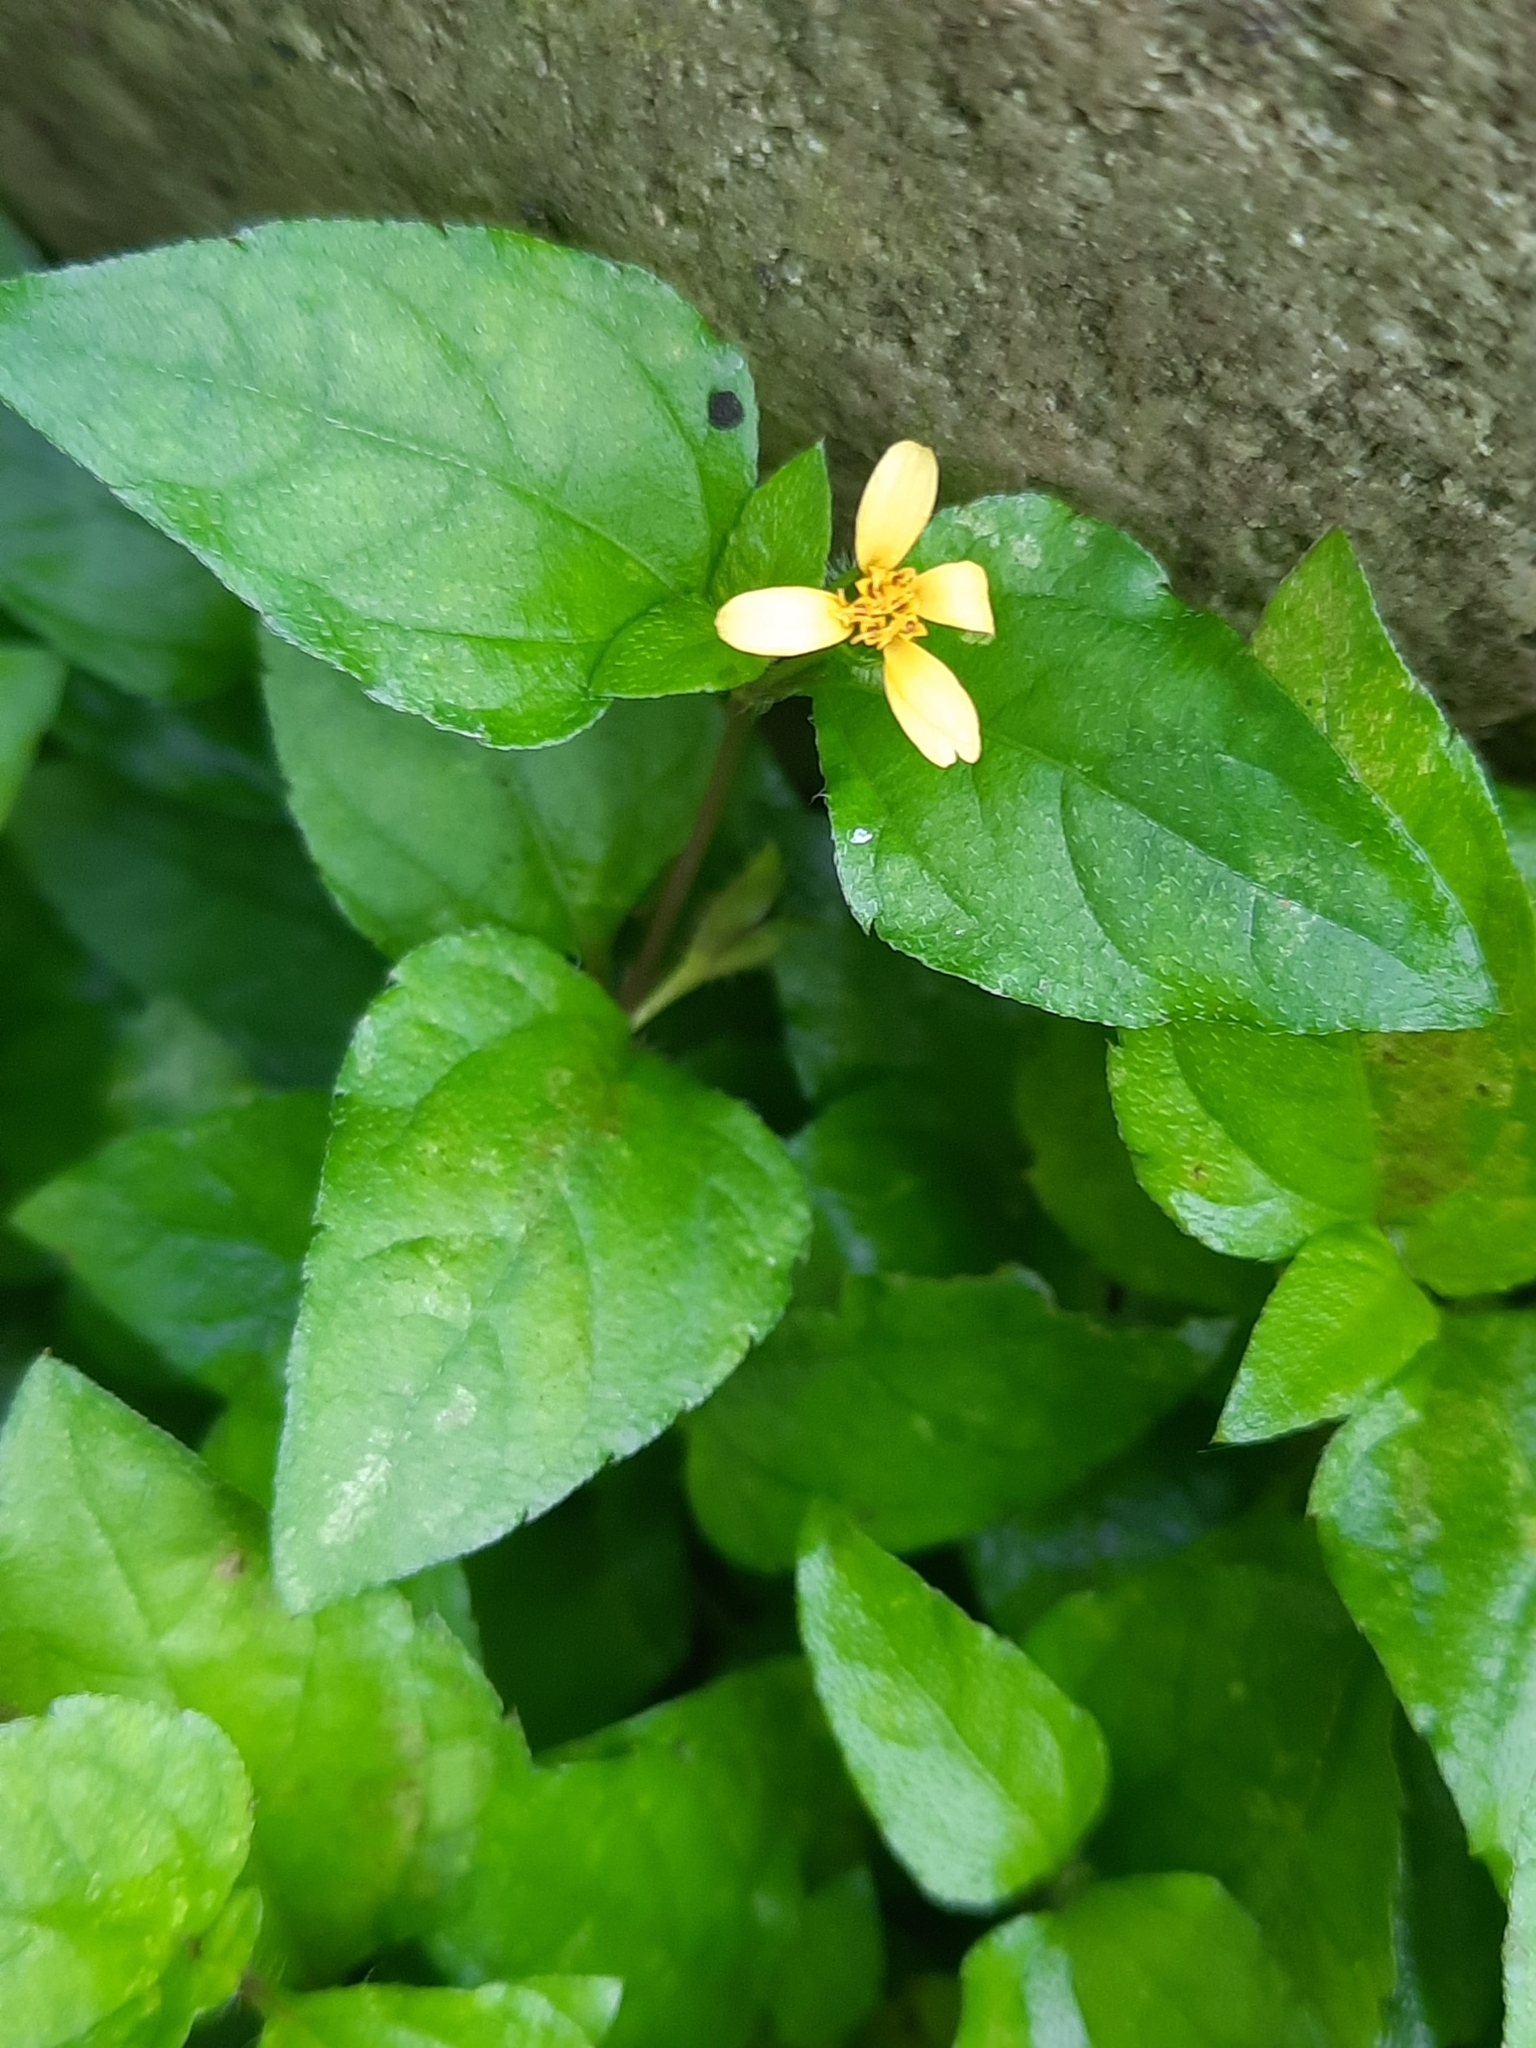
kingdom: Plantae
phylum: Tracheophyta
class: Magnoliopsida
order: Asterales
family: Asteraceae
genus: Calyptocarpus
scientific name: Calyptocarpus vialis
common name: Straggler daisy
